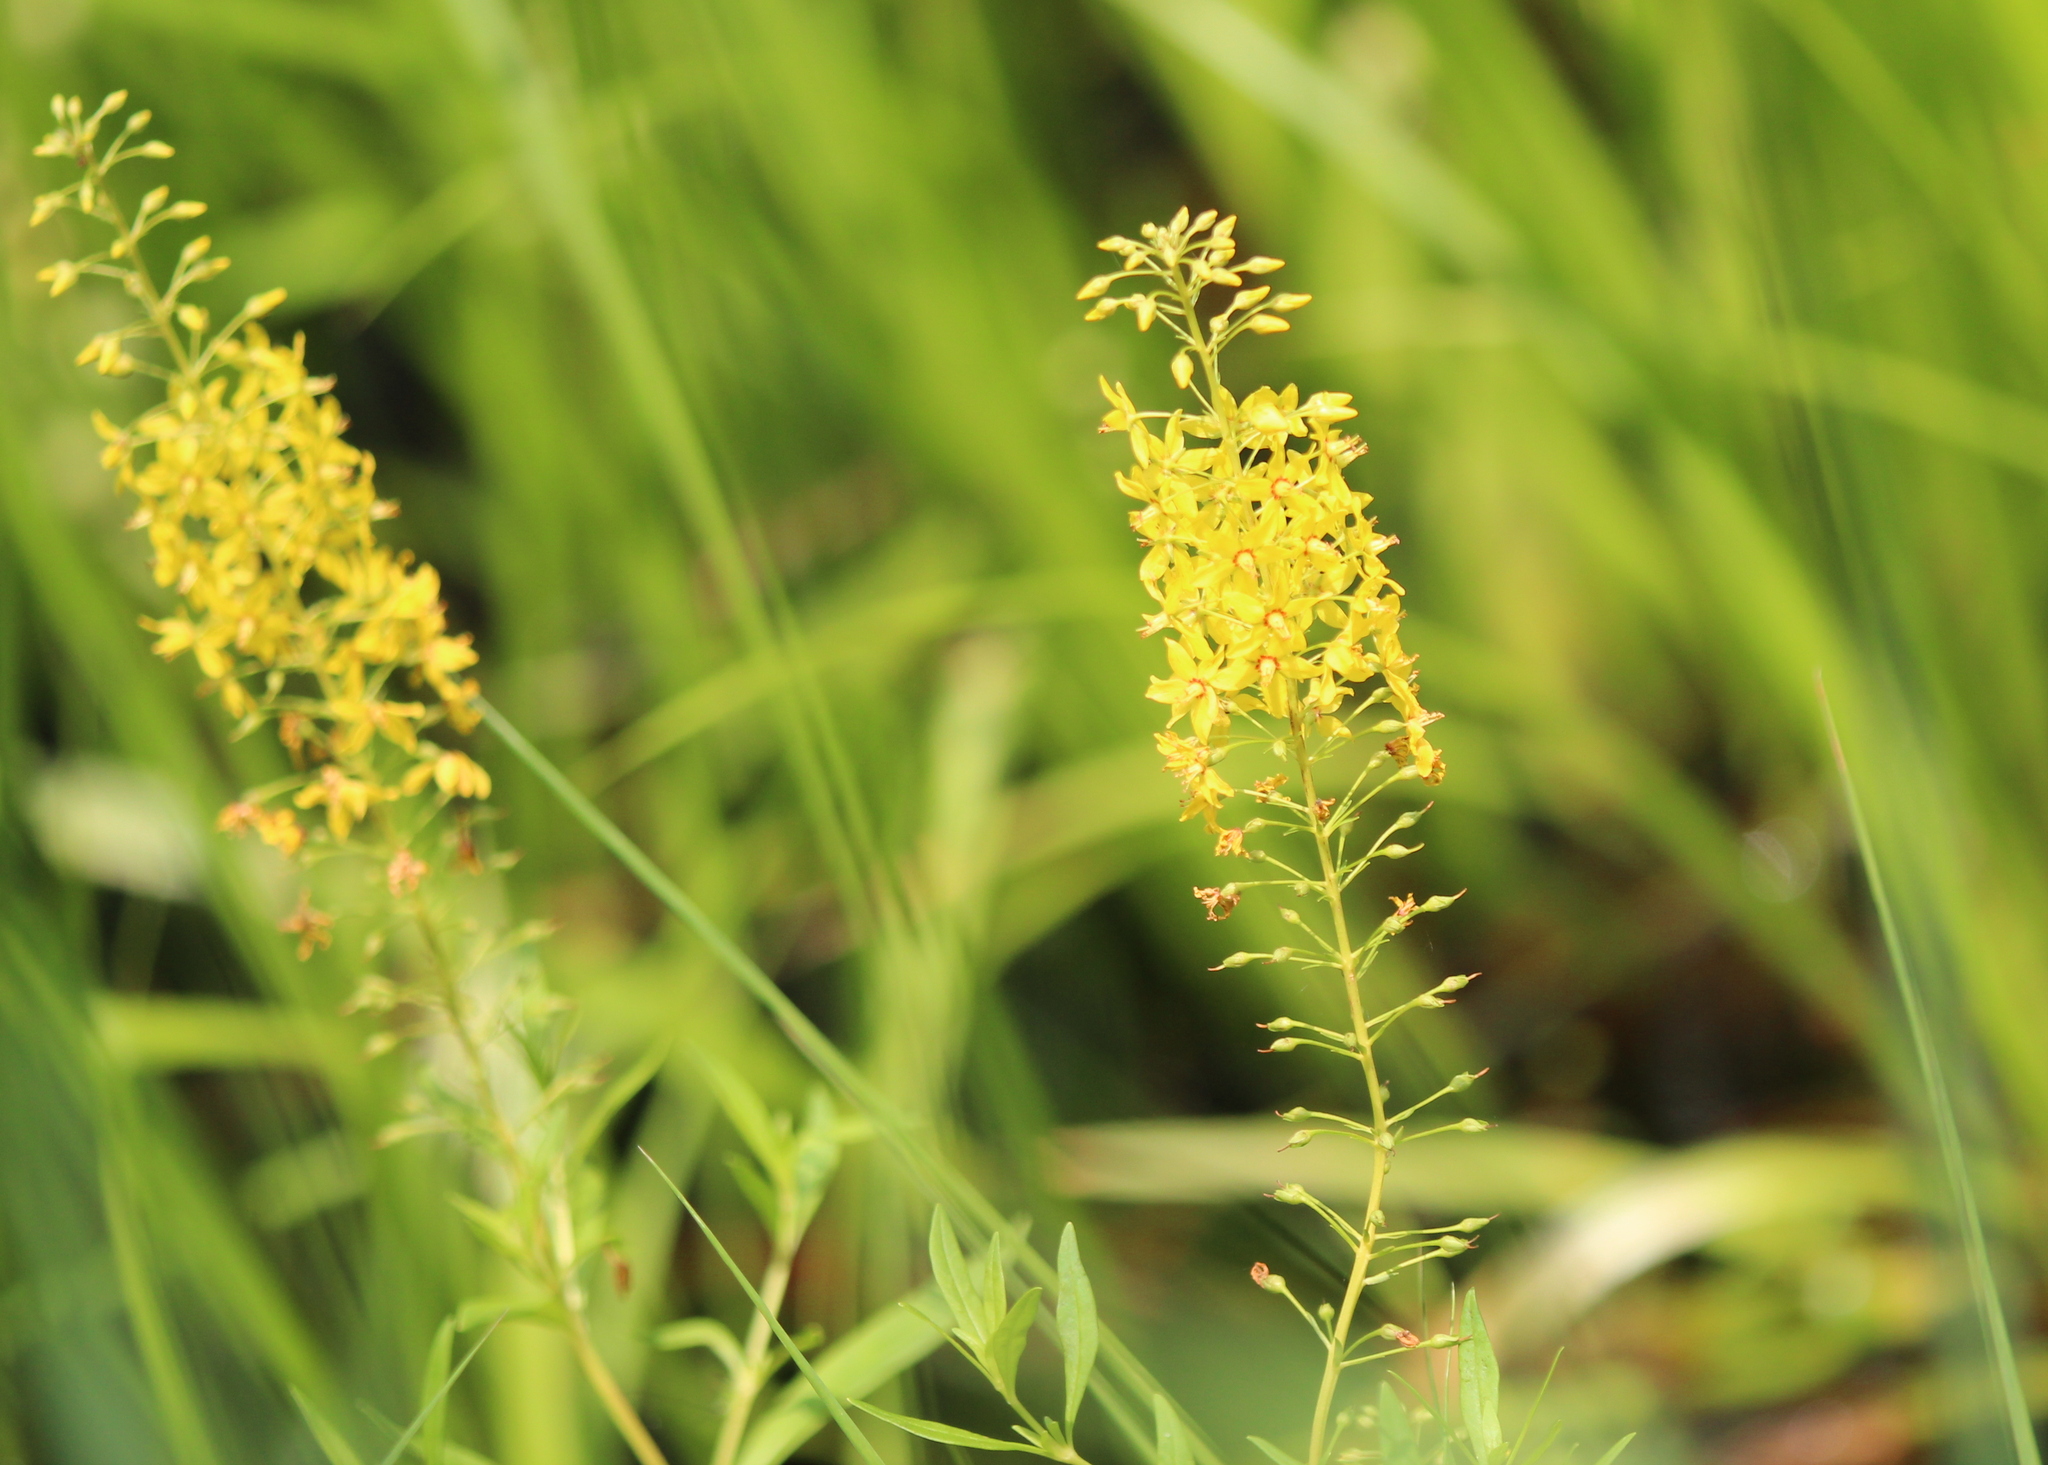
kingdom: Plantae
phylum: Tracheophyta
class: Magnoliopsida
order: Ericales
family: Primulaceae
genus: Lysimachia
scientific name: Lysimachia terrestris
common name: Lake loosestrife
